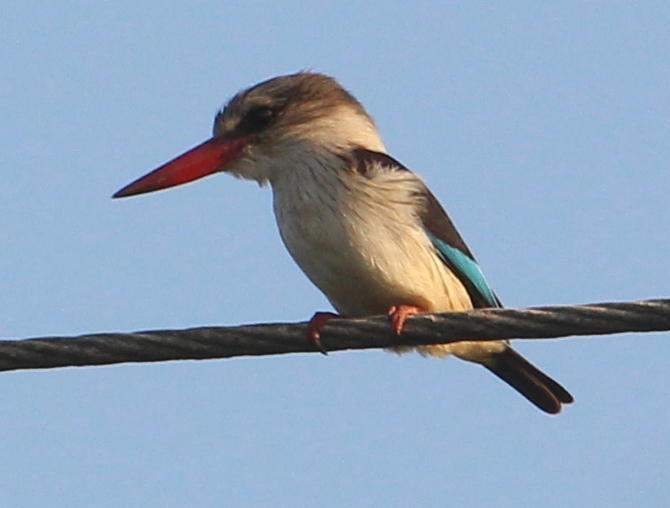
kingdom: Animalia
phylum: Chordata
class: Aves
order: Coraciiformes
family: Alcedinidae
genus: Halcyon
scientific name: Halcyon albiventris
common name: Brown-hooded kingfisher
